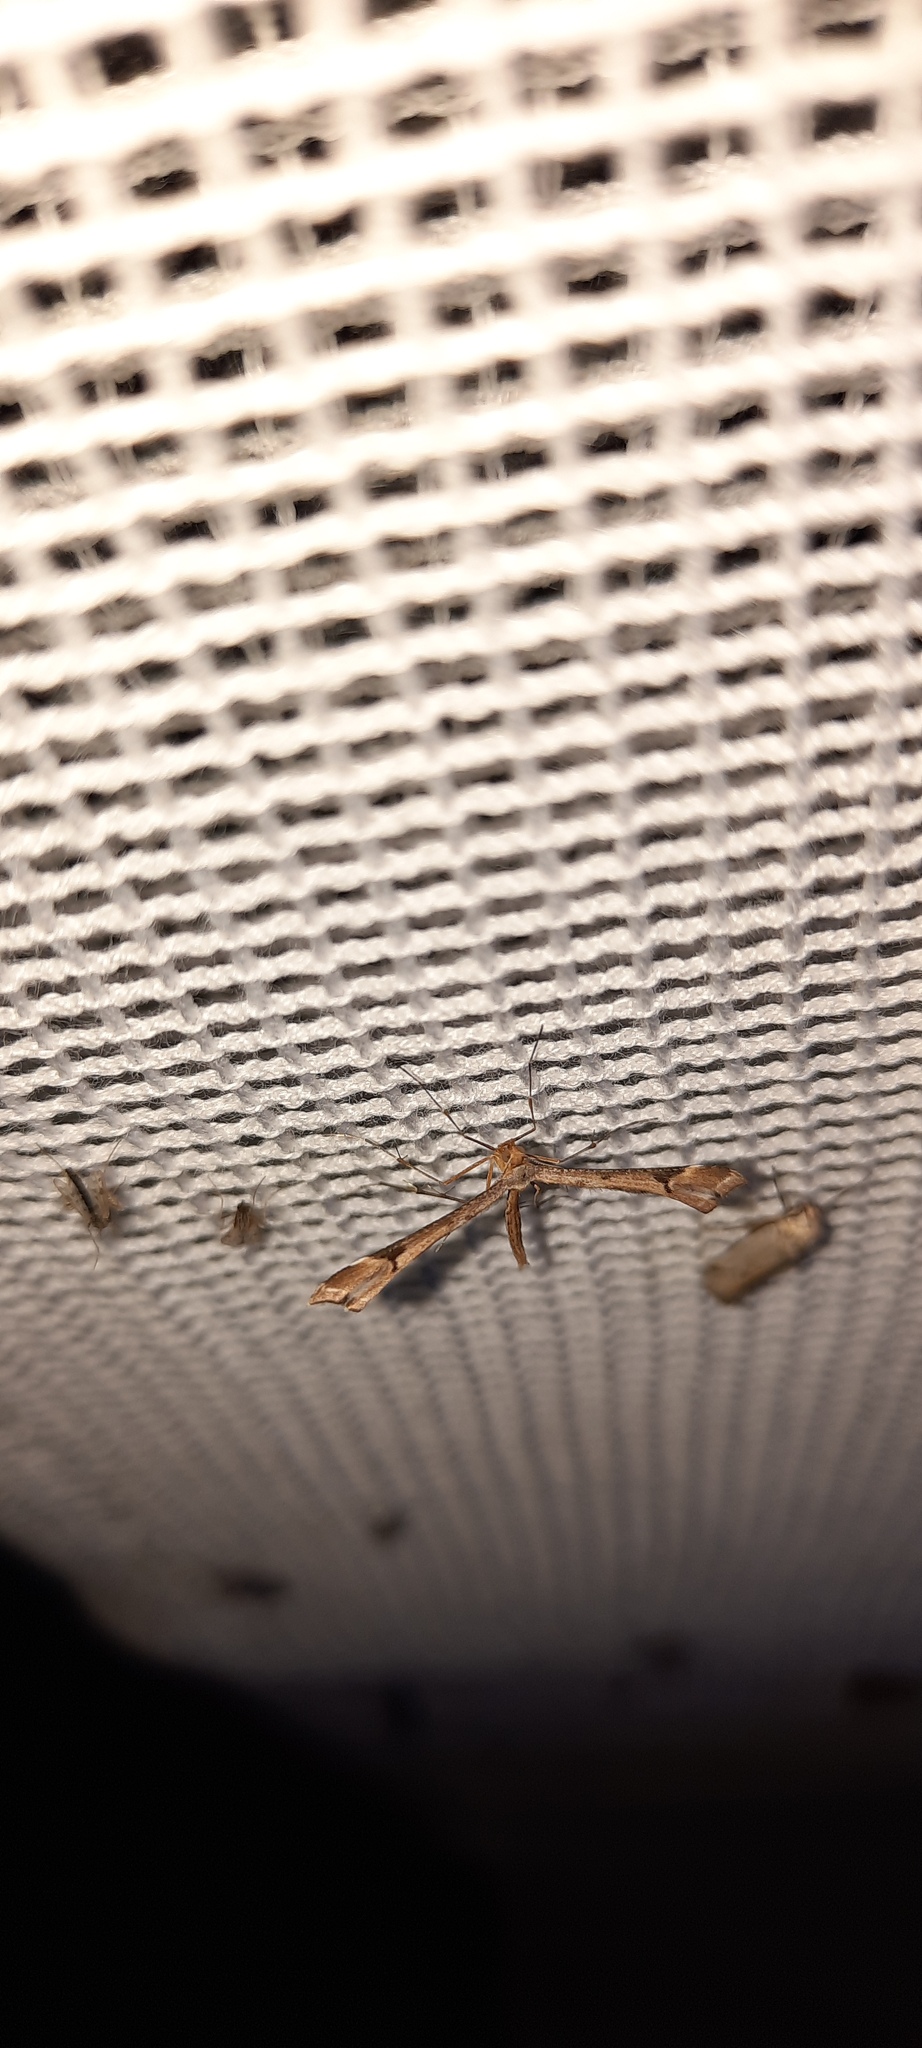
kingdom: Animalia
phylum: Arthropoda
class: Insecta
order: Lepidoptera
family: Pterophoridae
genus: Sinpunctiptilia
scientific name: Sinpunctiptilia emissalis
